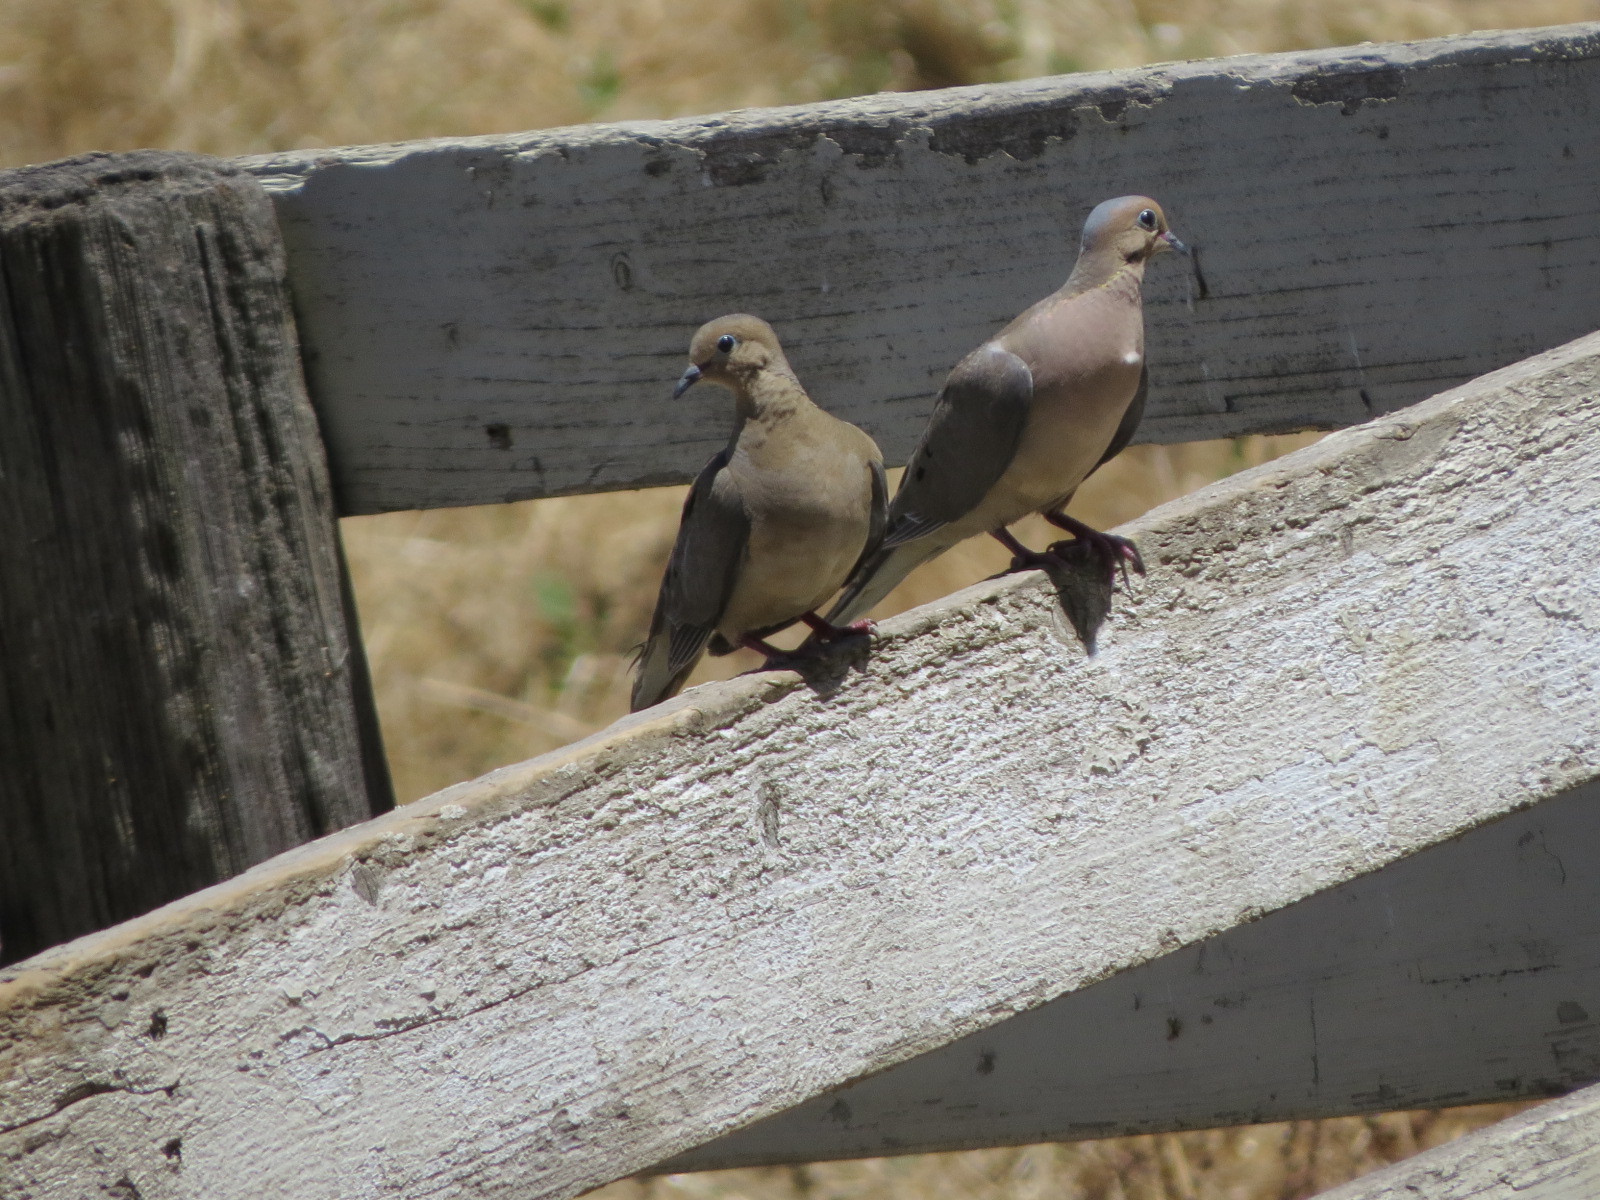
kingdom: Animalia
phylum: Chordata
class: Aves
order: Columbiformes
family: Columbidae
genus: Zenaida
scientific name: Zenaida macroura
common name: Mourning dove
